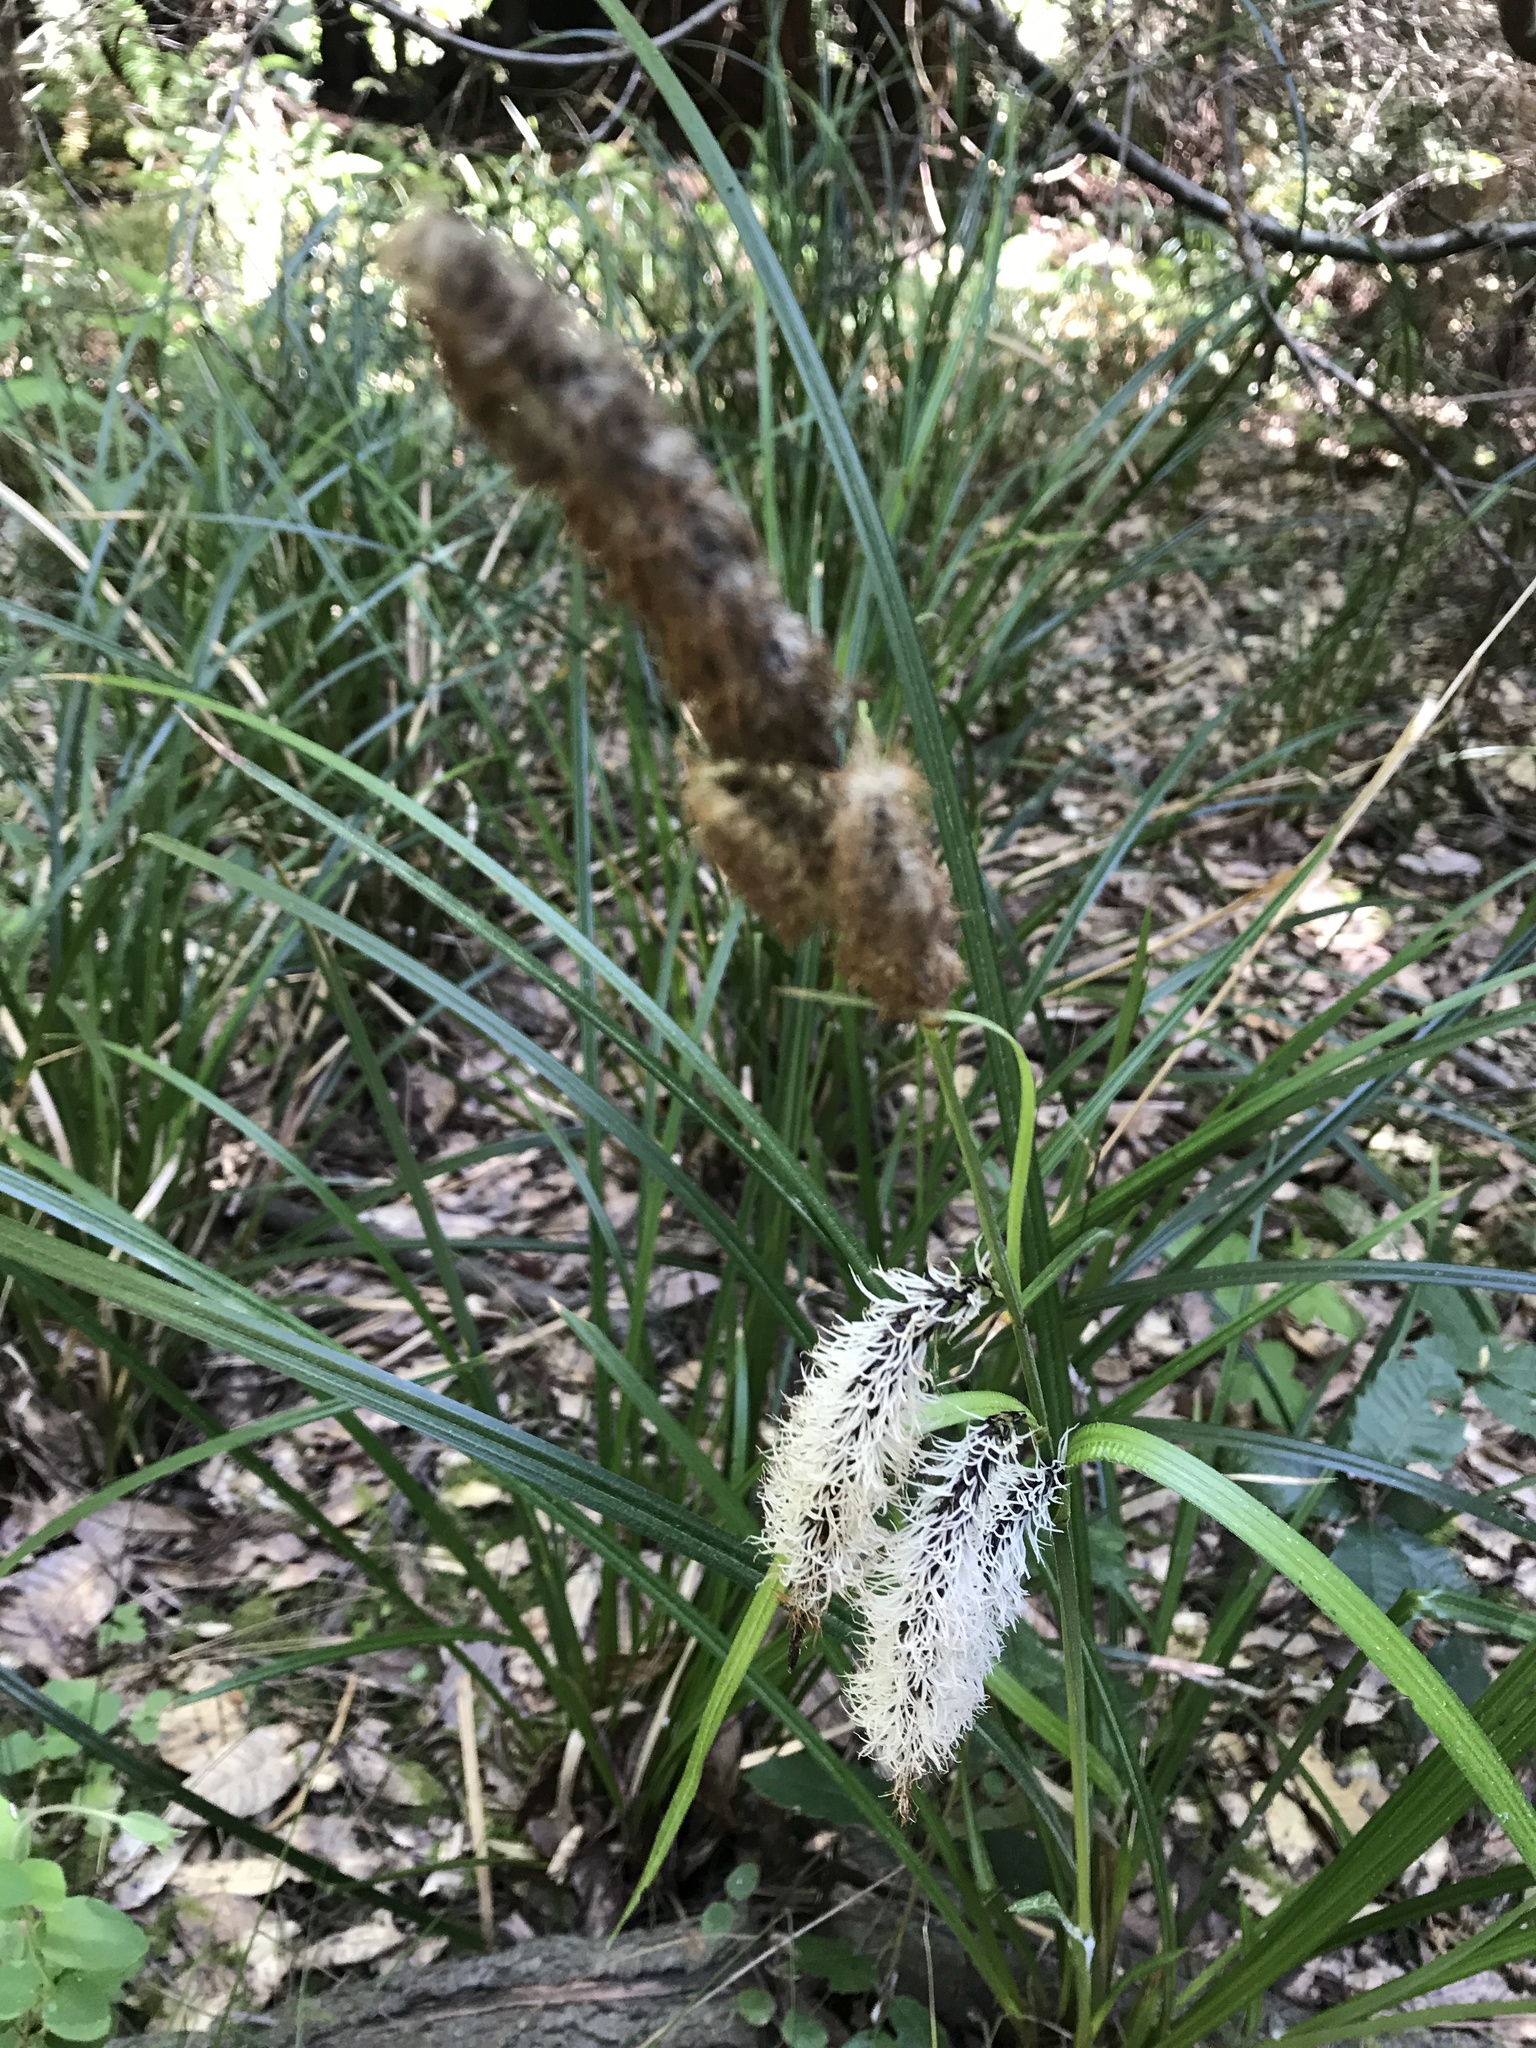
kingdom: Plantae
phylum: Tracheophyta
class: Liliopsida
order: Poales
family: Cyperaceae
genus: Carex
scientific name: Carex obnupta
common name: Slough sedge
